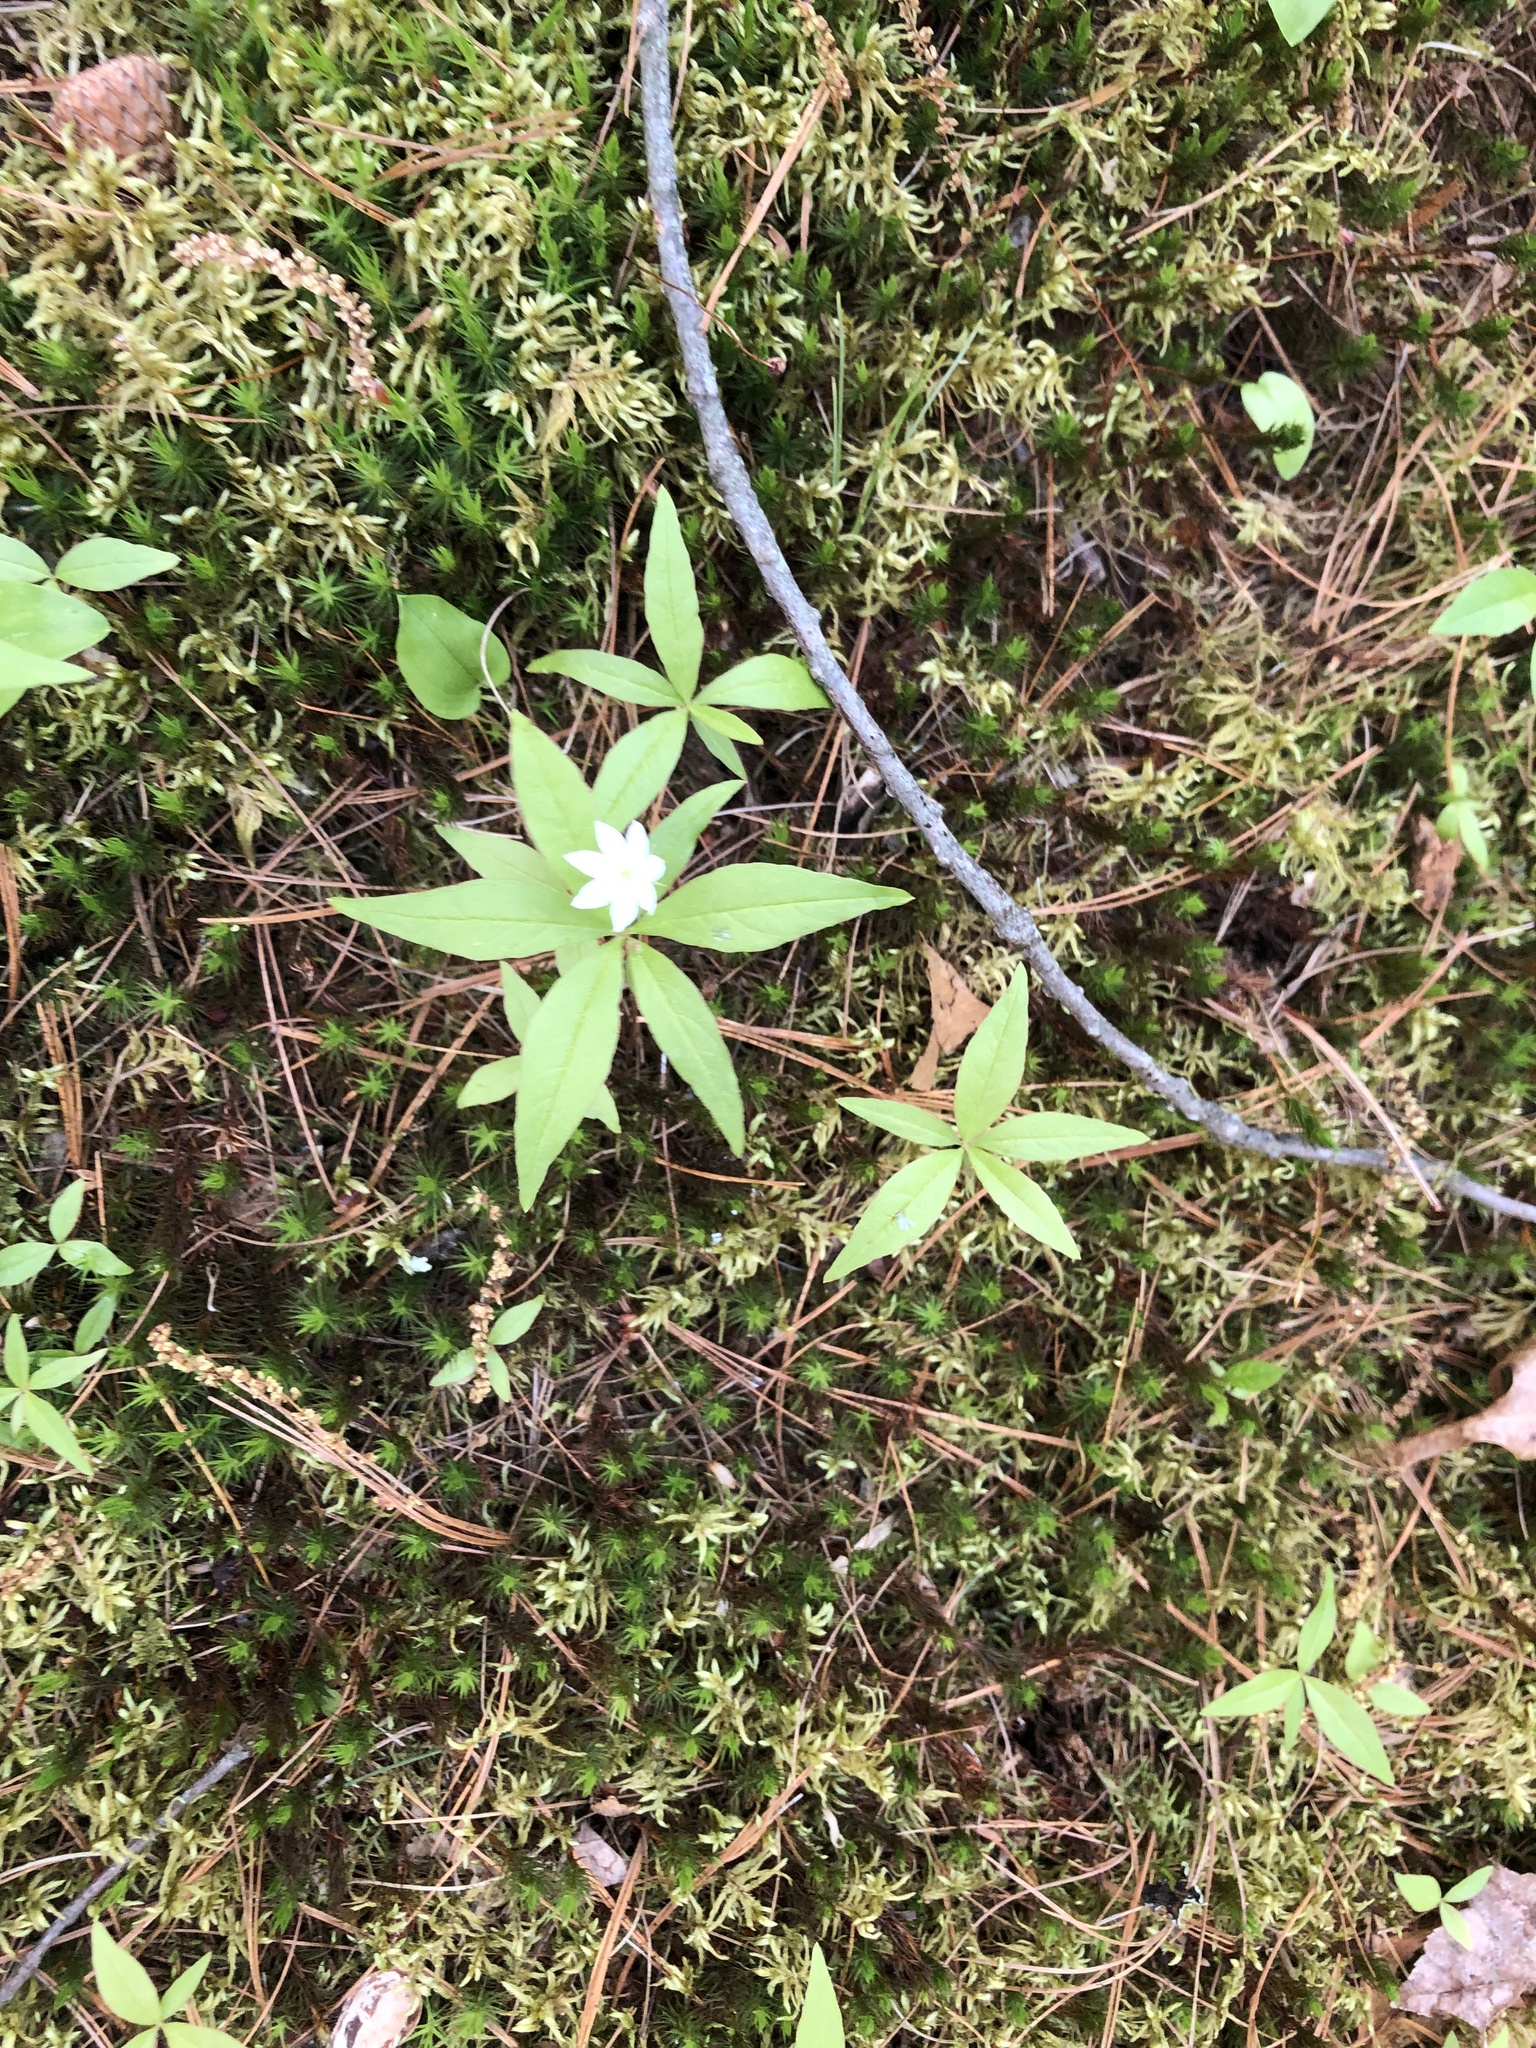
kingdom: Plantae
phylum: Tracheophyta
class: Magnoliopsida
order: Ericales
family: Primulaceae
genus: Lysimachia
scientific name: Lysimachia borealis
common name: American starflower
